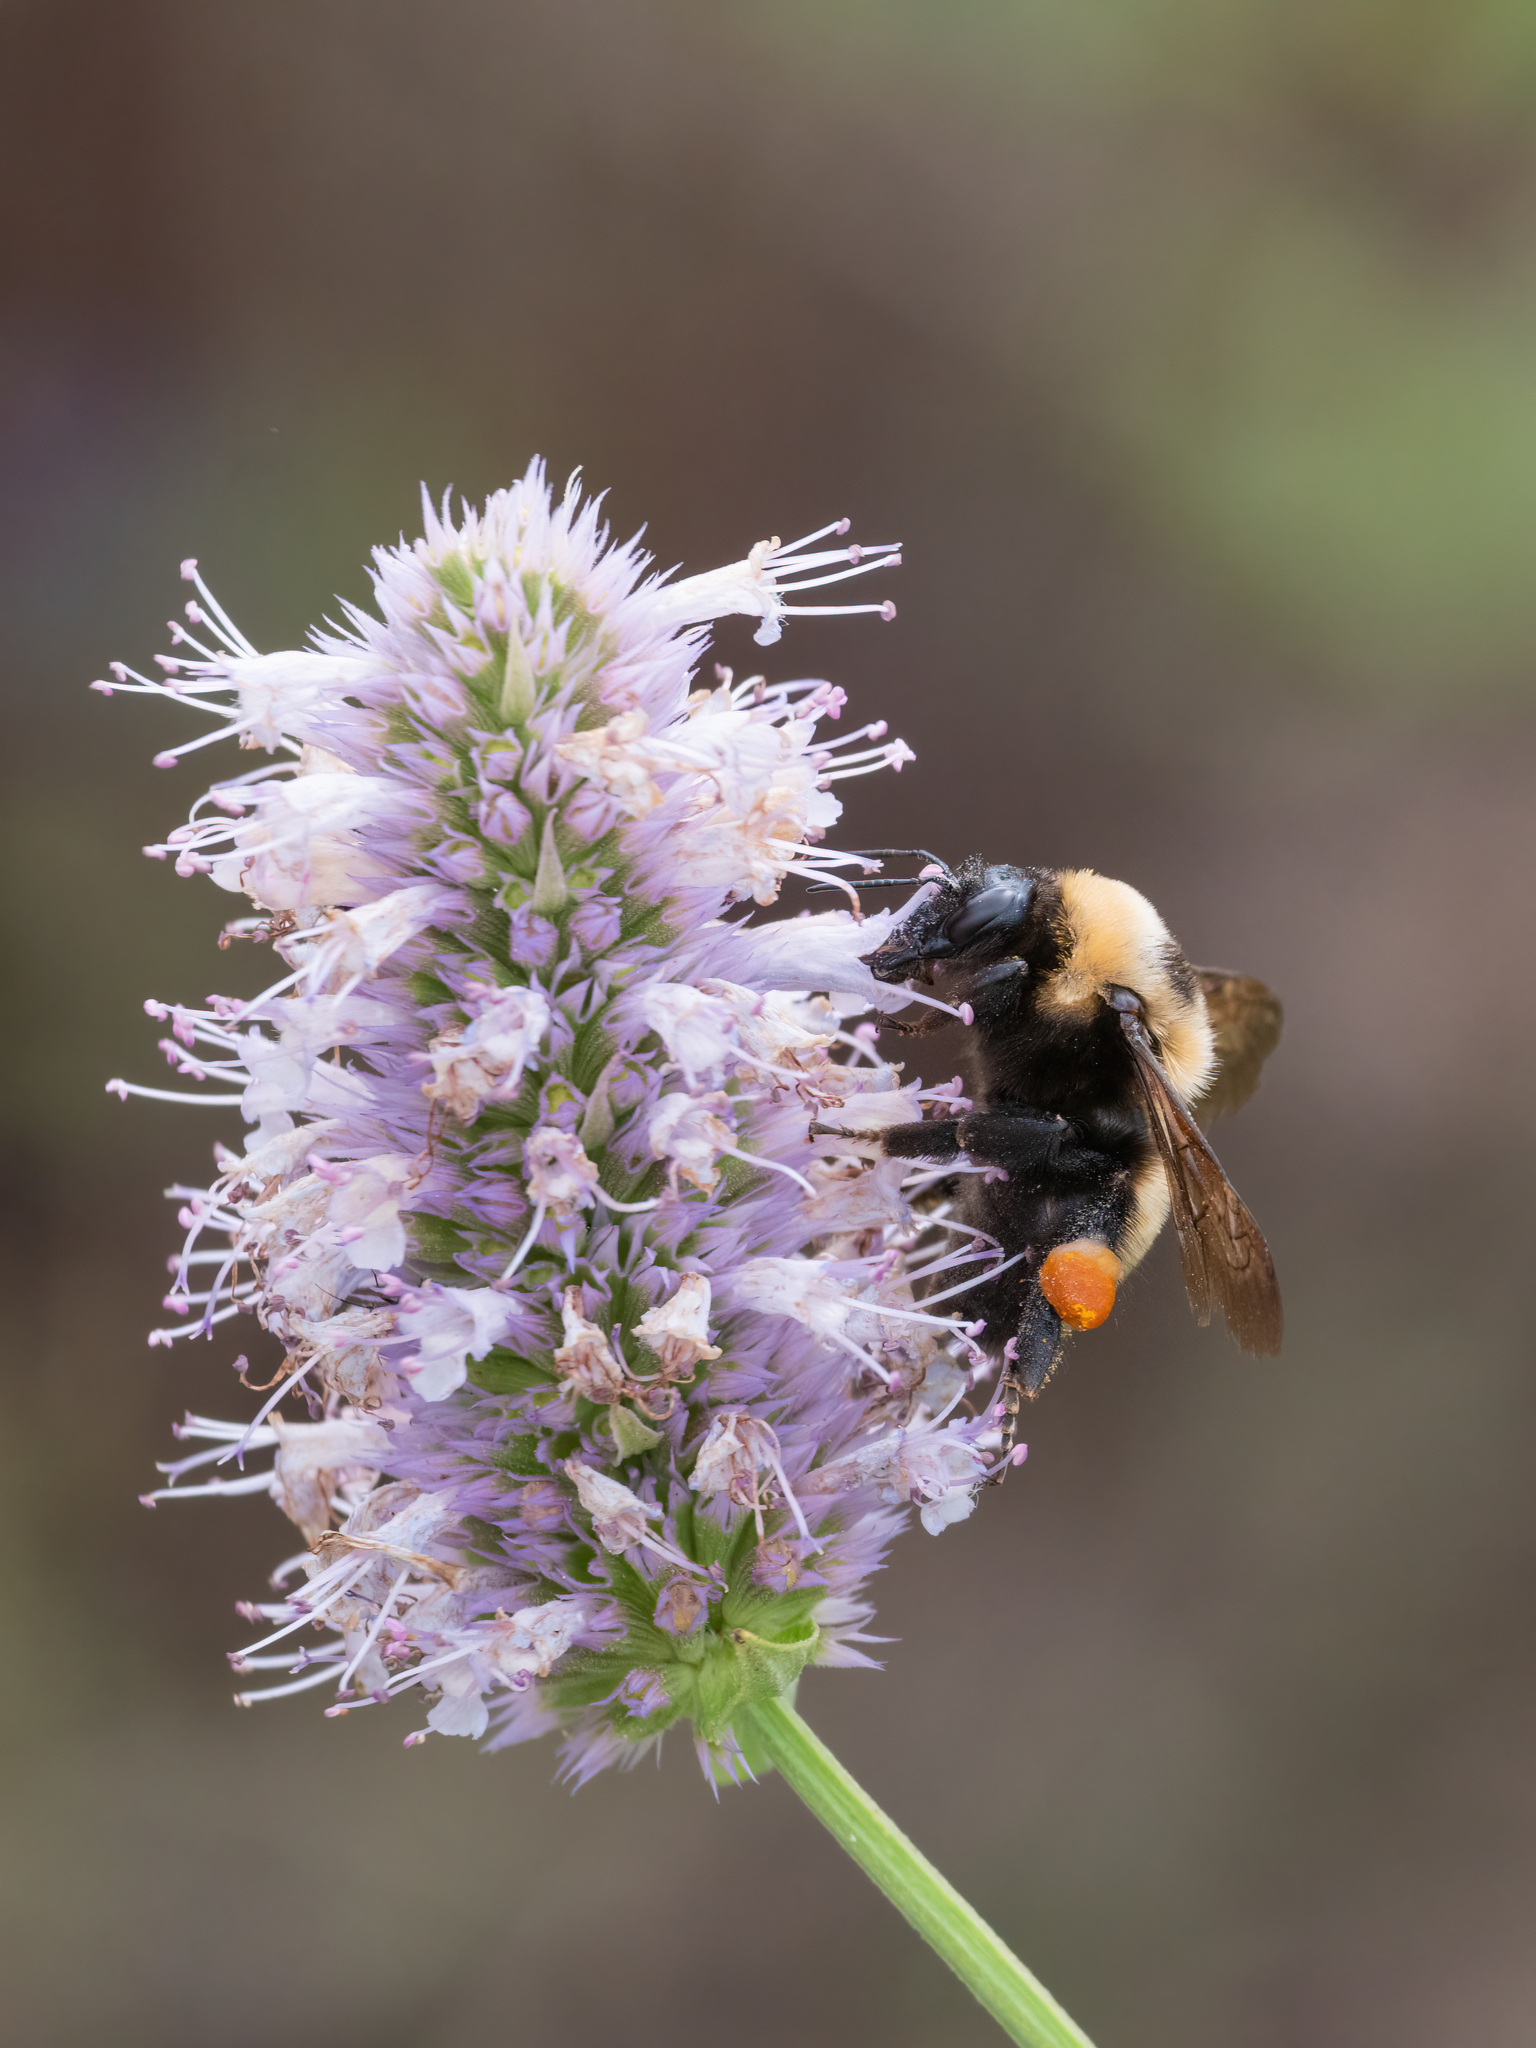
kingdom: Animalia
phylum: Arthropoda
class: Insecta
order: Hymenoptera
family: Apidae
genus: Bombus
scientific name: Bombus nevadensis
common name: Nevada bumble bee
